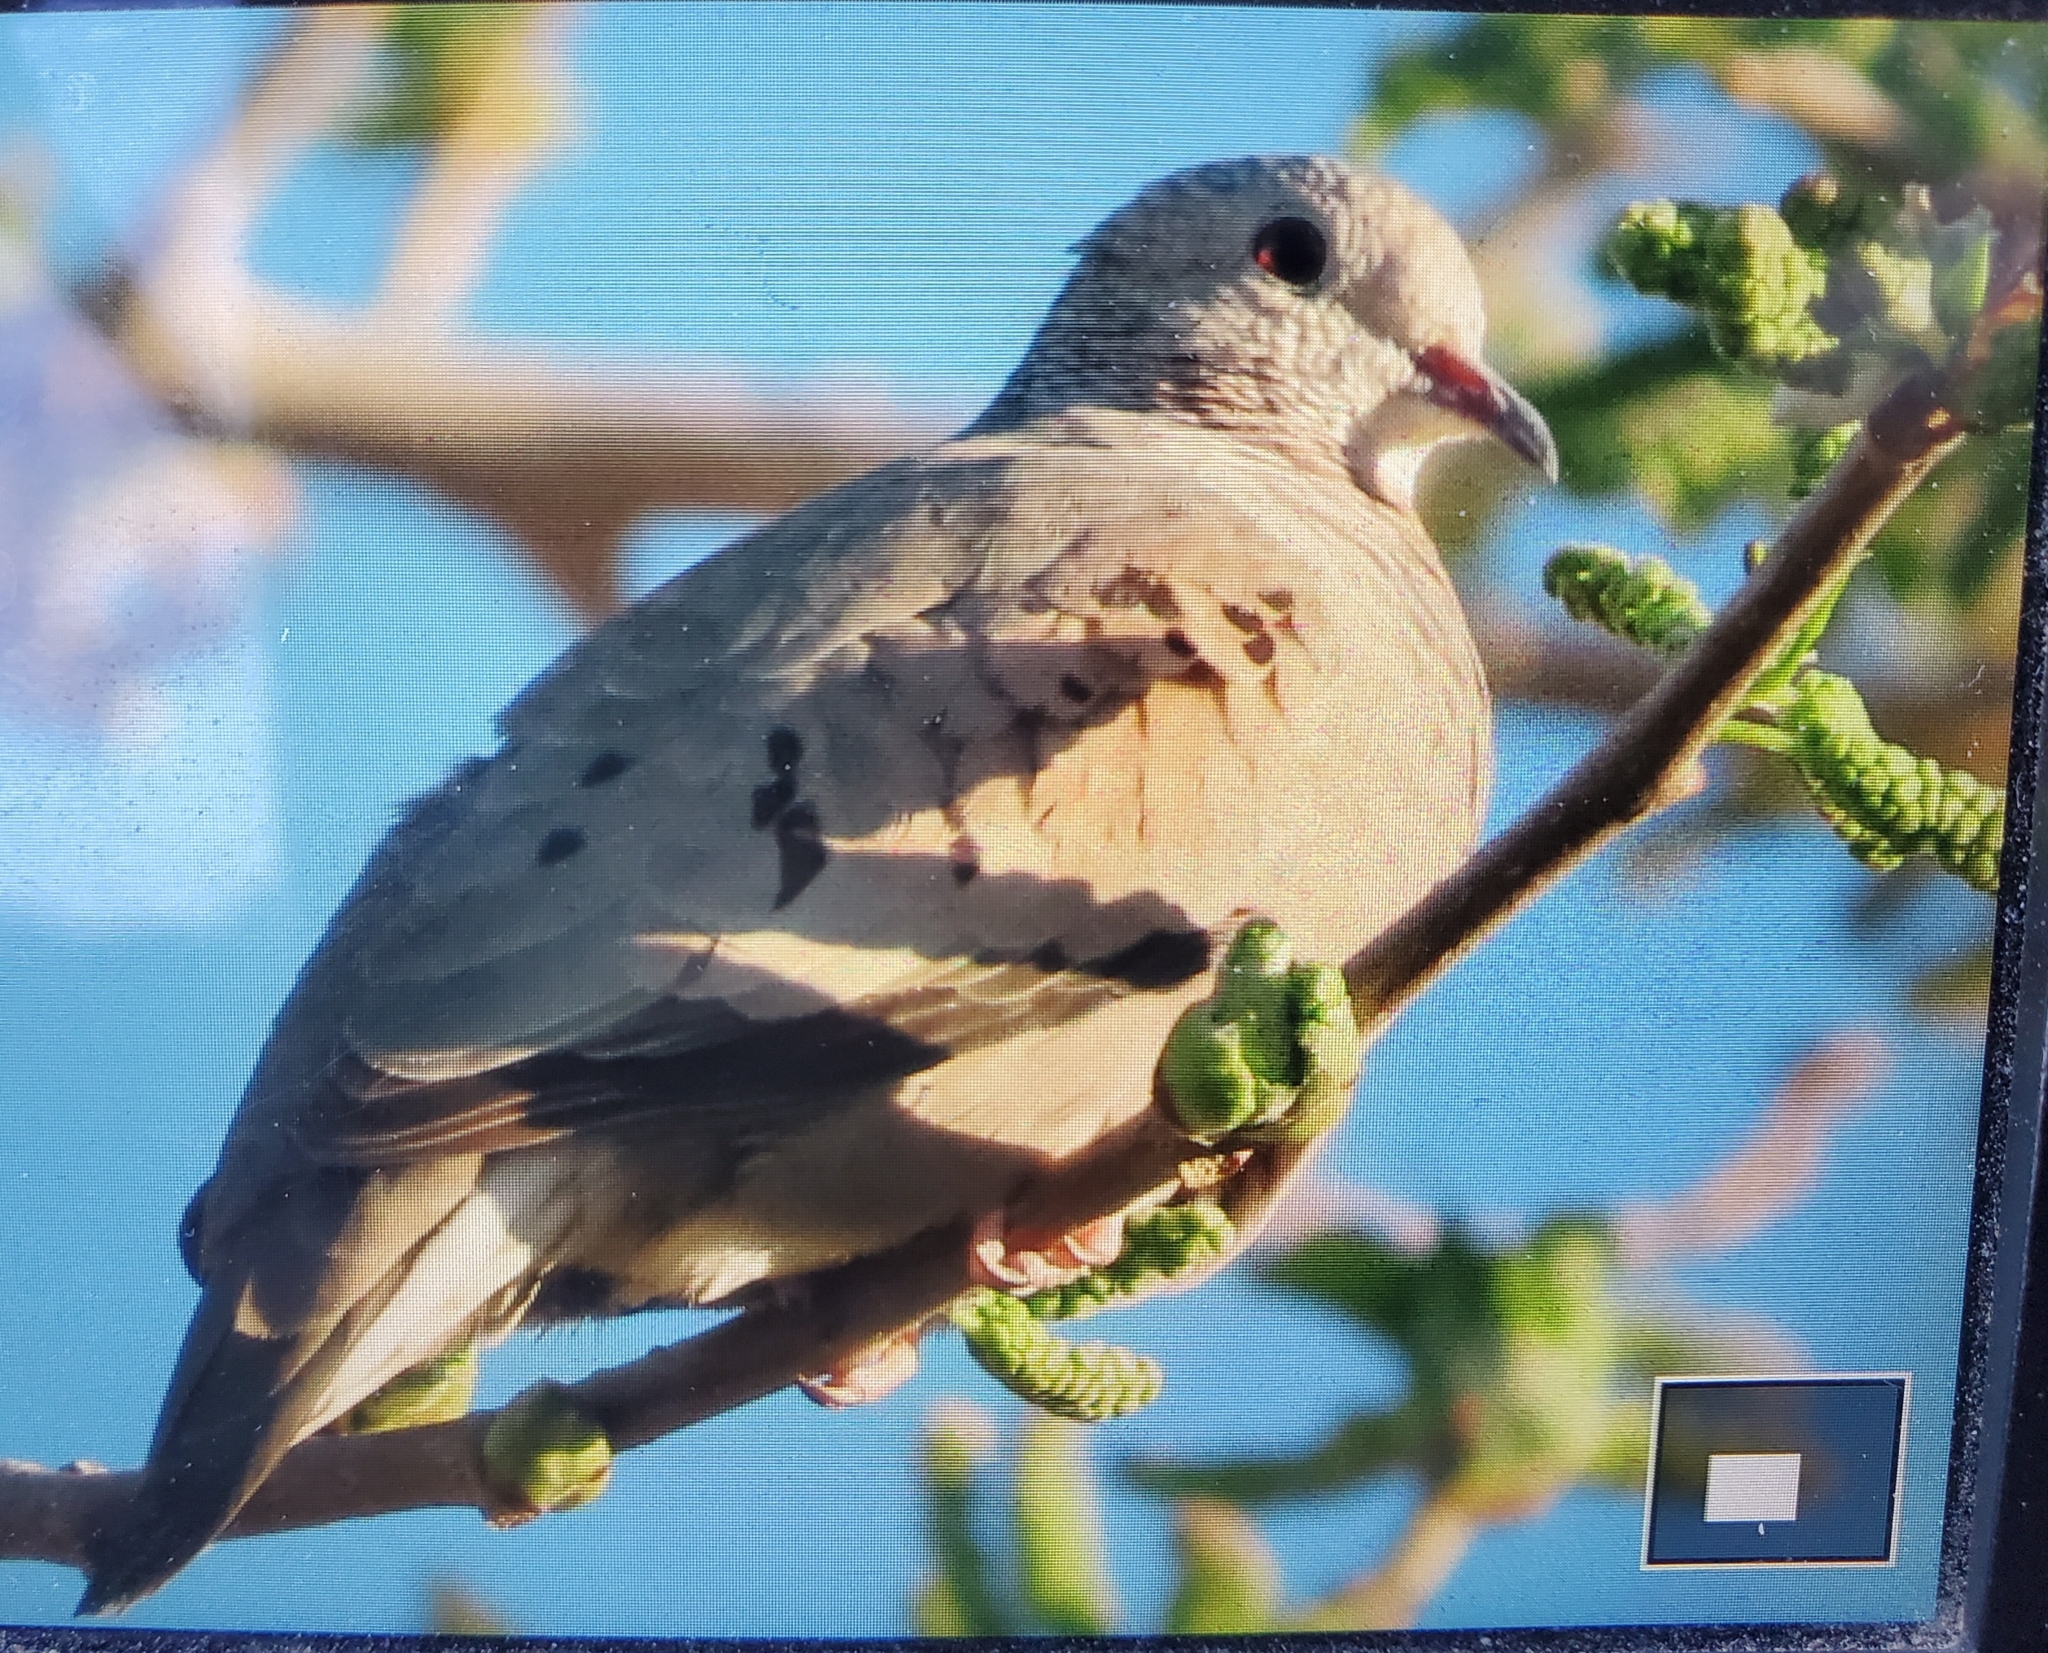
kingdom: Animalia
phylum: Chordata
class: Aves
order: Columbiformes
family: Columbidae
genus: Columbina
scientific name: Columbina passerina
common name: Common ground-dove
